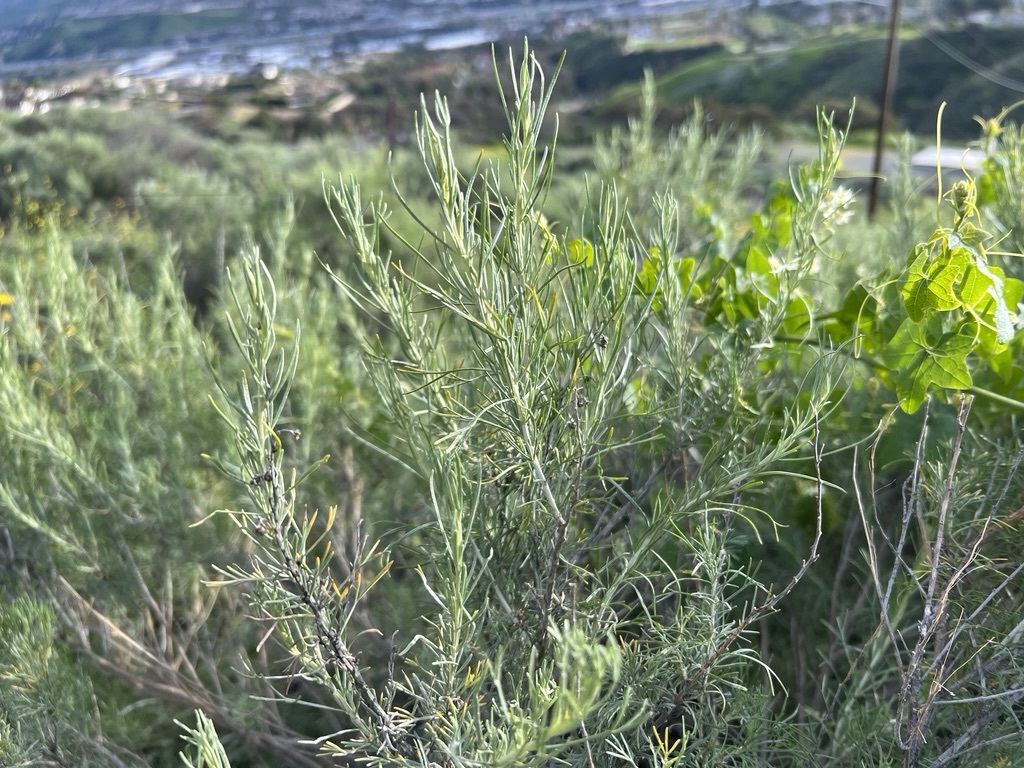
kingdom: Plantae
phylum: Tracheophyta
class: Magnoliopsida
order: Asterales
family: Asteraceae
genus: Artemisia
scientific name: Artemisia californica
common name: California sagebrush
